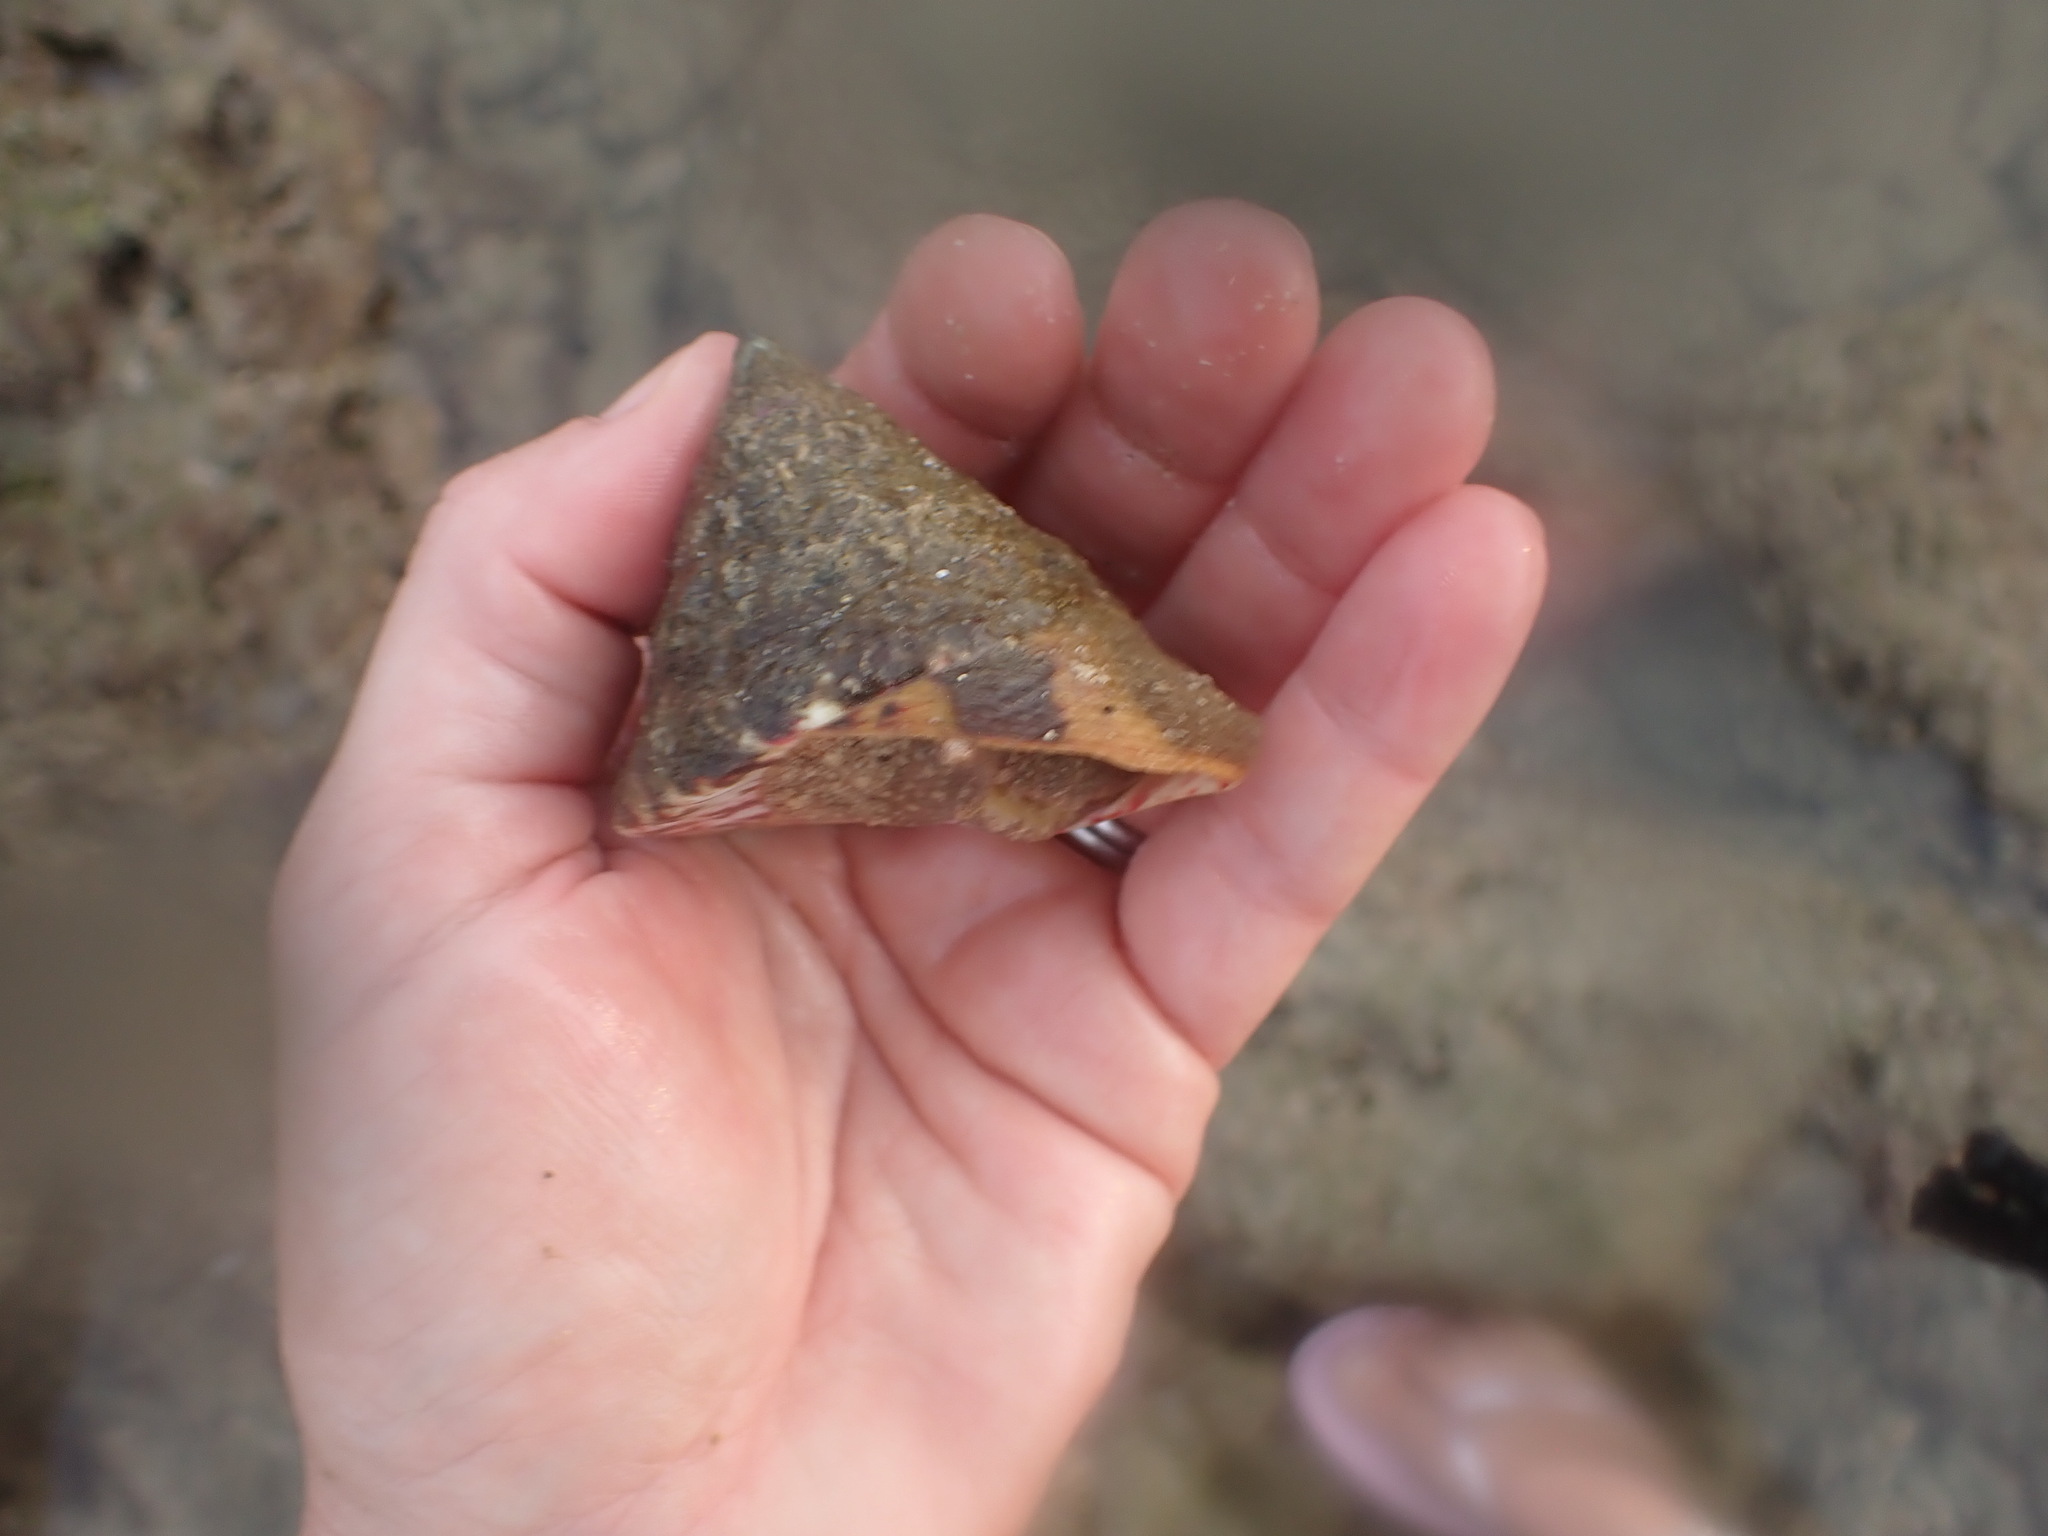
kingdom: Animalia
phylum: Mollusca
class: Gastropoda
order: Trochida
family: Tegulidae
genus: Rochia
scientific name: Rochia nilotica
